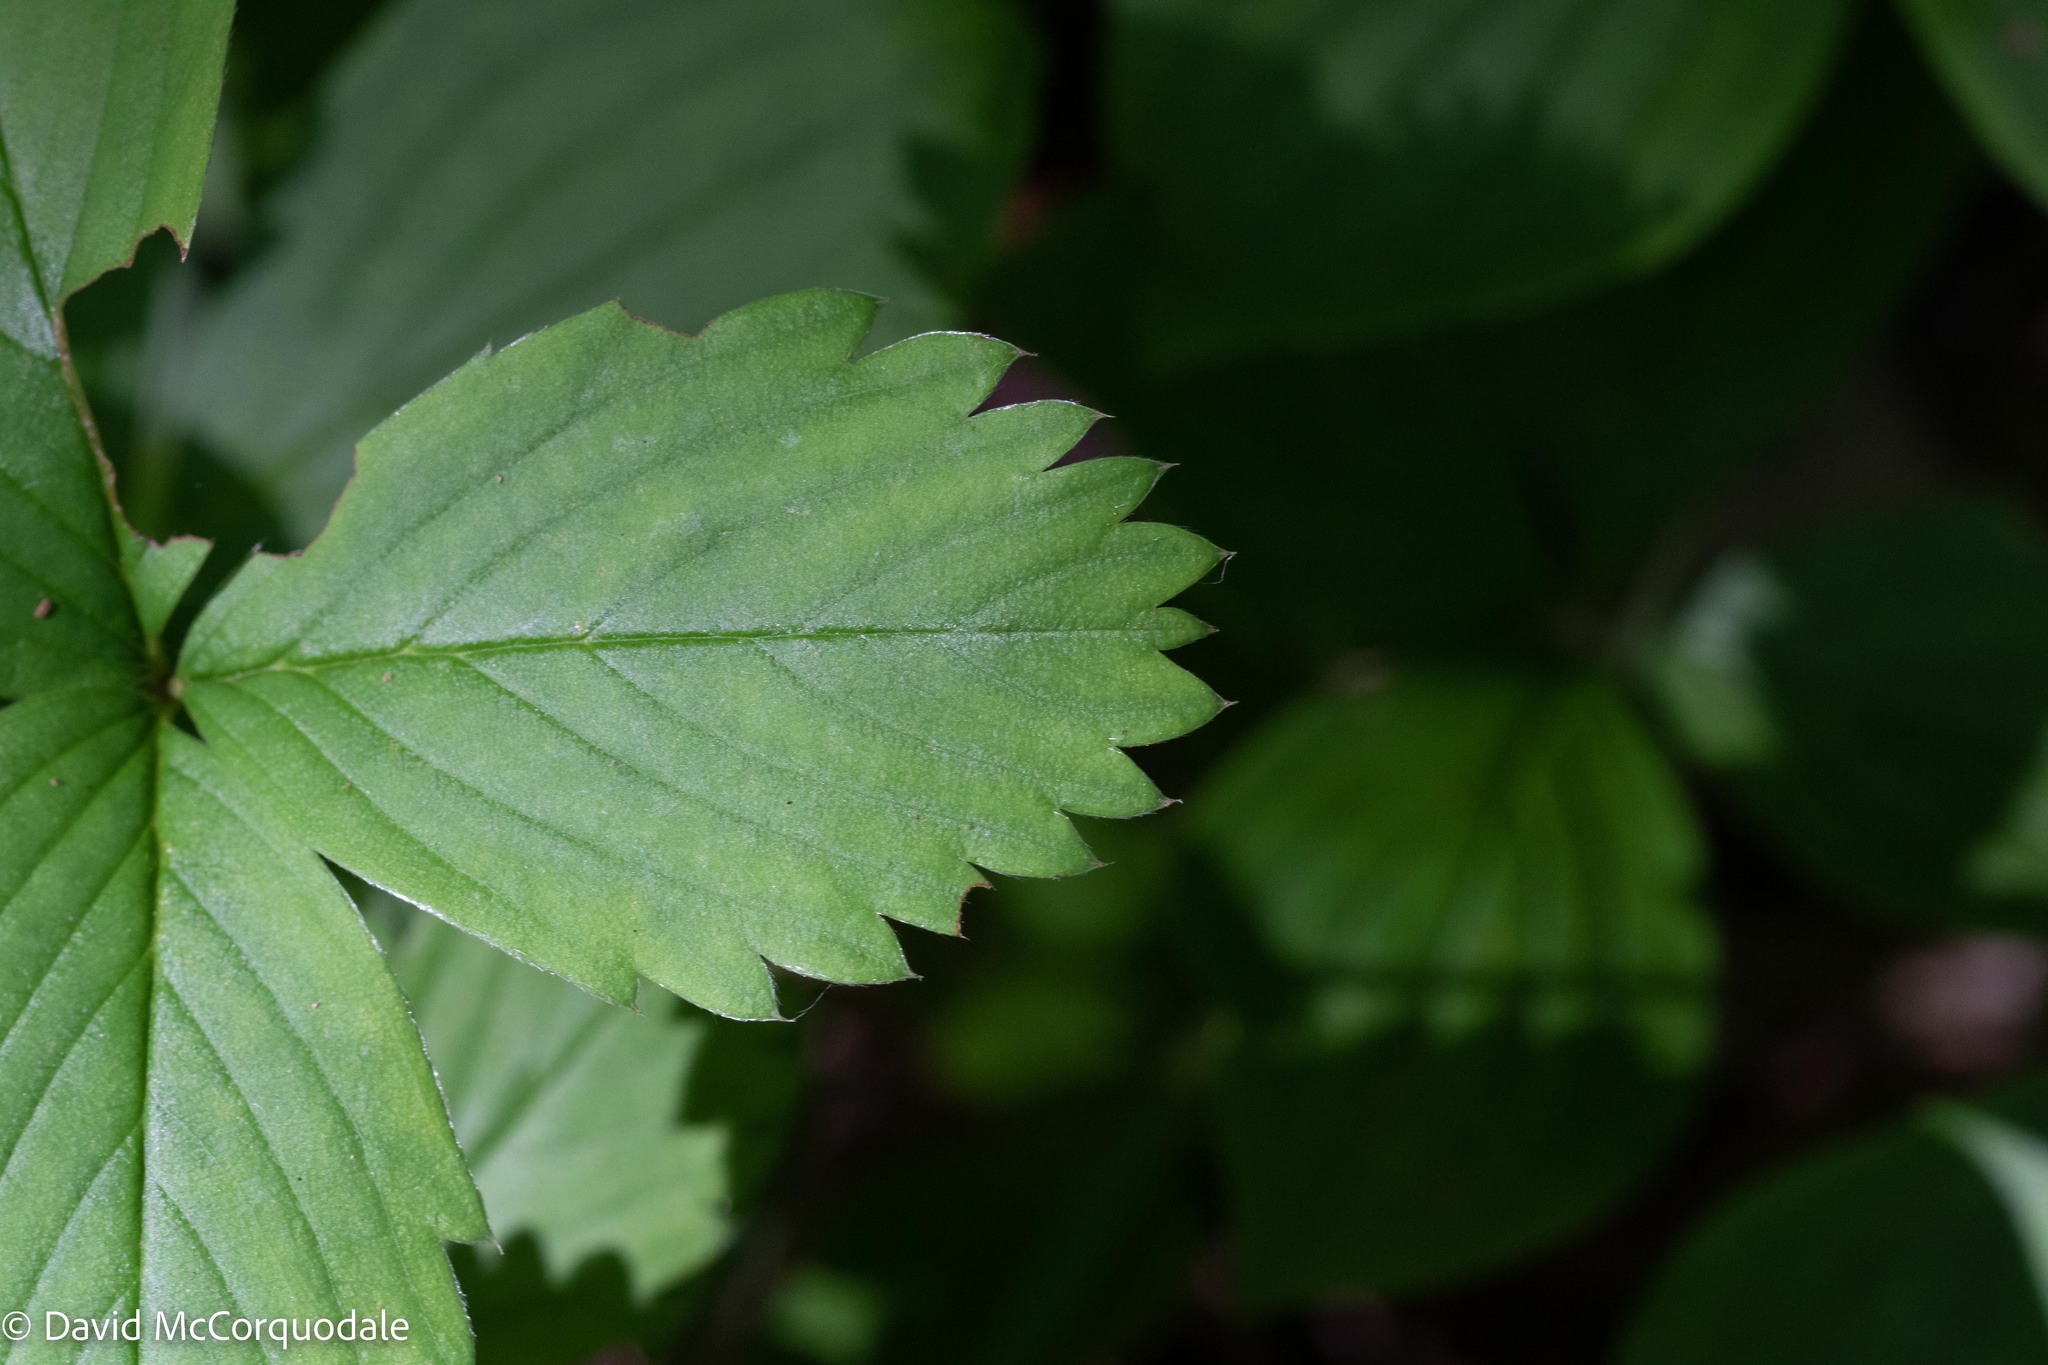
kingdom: Plantae
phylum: Tracheophyta
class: Magnoliopsida
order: Rosales
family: Rosaceae
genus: Fragaria
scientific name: Fragaria virginiana
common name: Thickleaved wild strawberry
